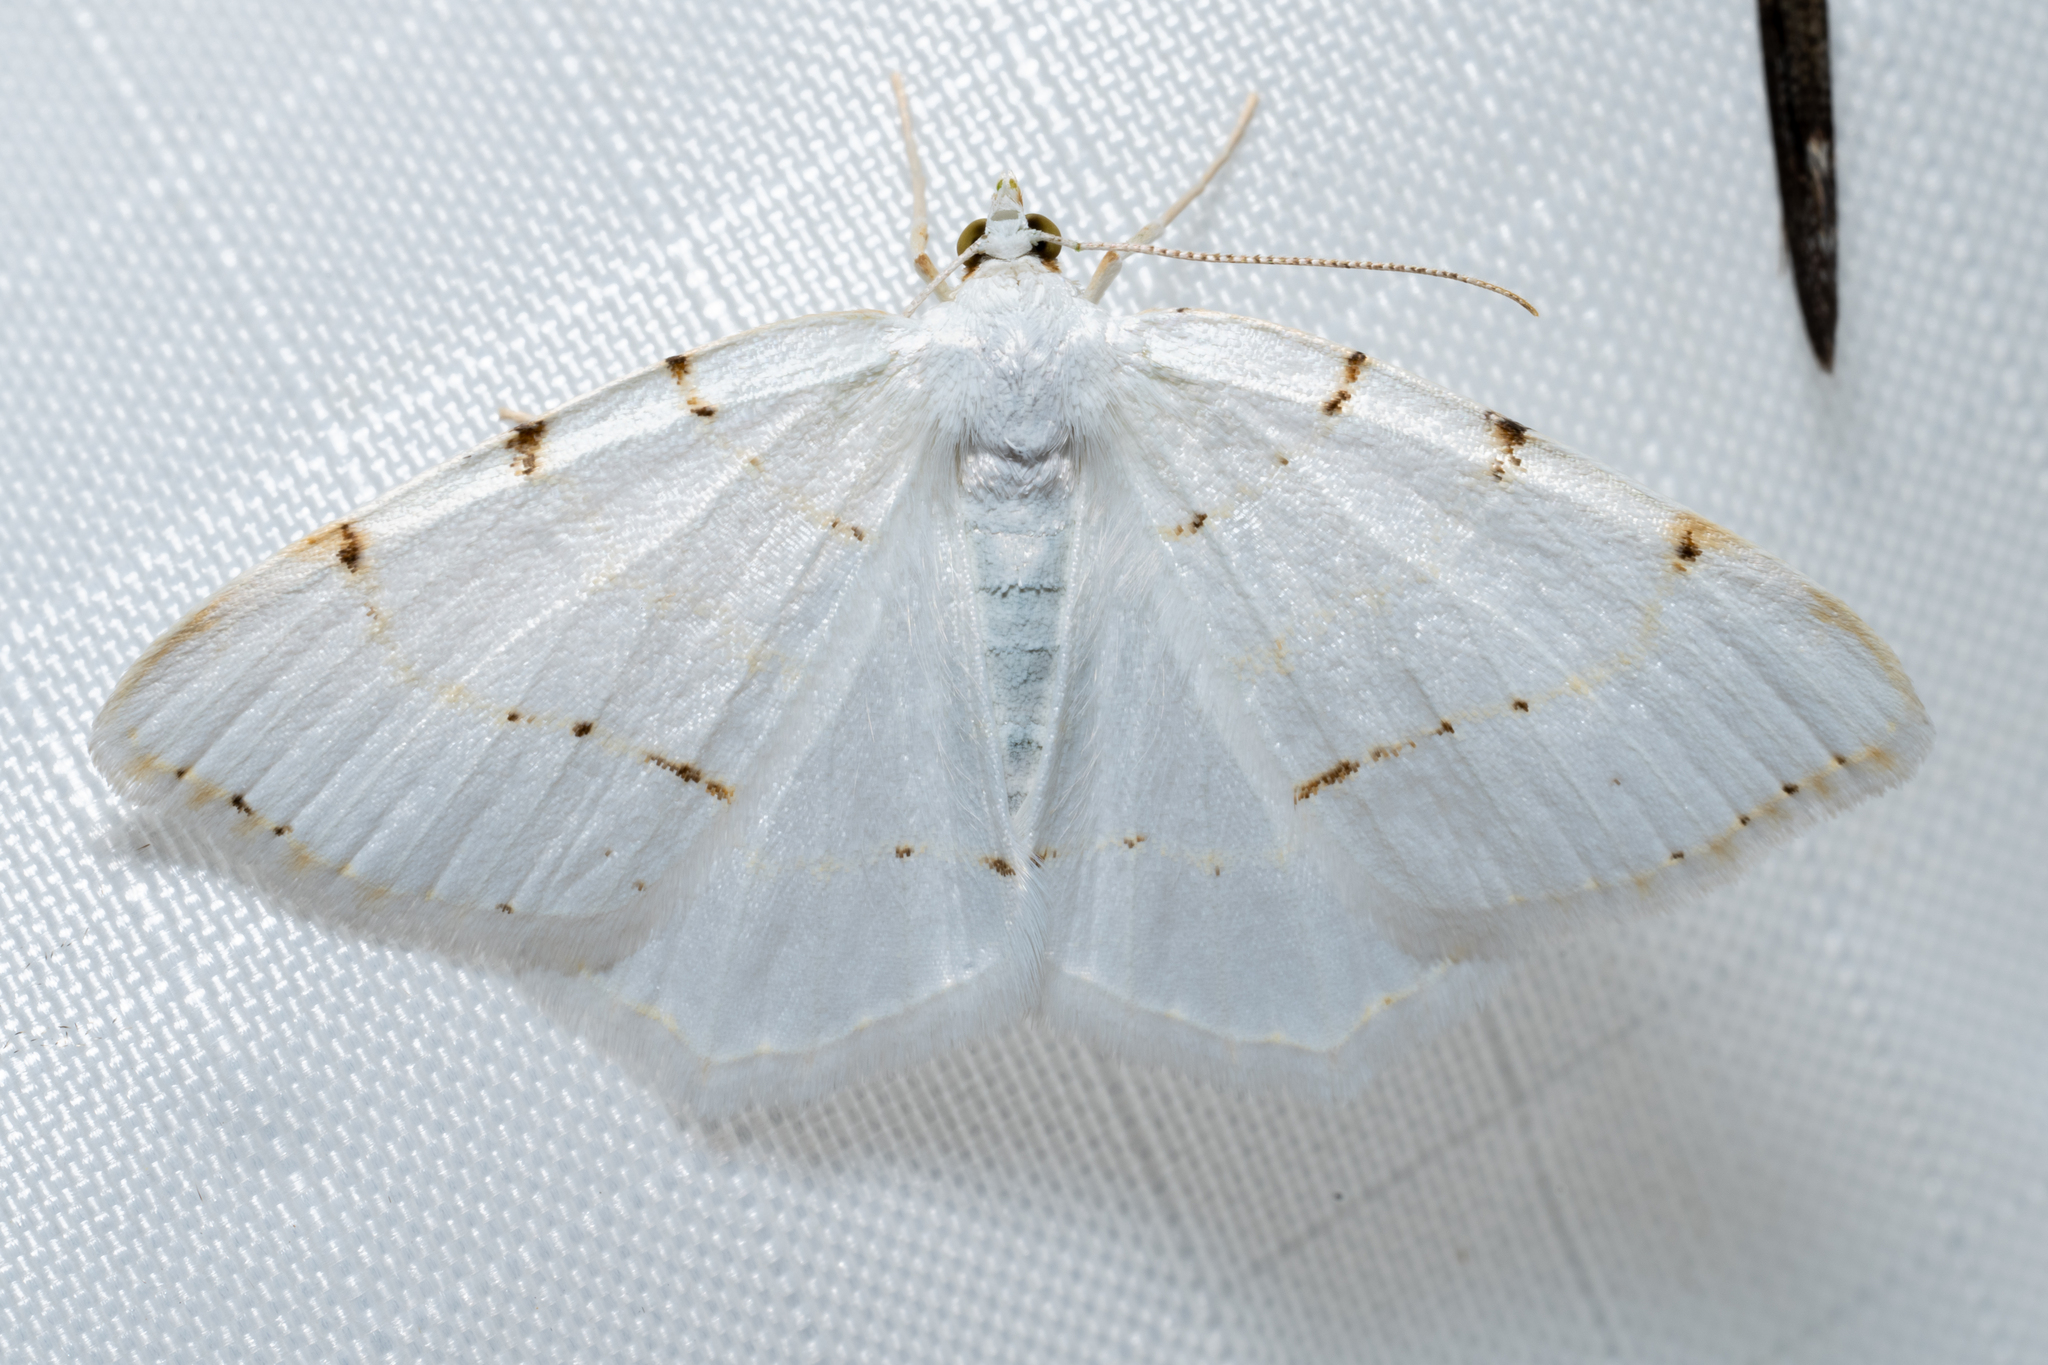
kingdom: Animalia
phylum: Arthropoda
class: Insecta
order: Lepidoptera
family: Geometridae
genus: Macaria
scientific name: Macaria pustularia
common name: Lesser maple spanworm moth
